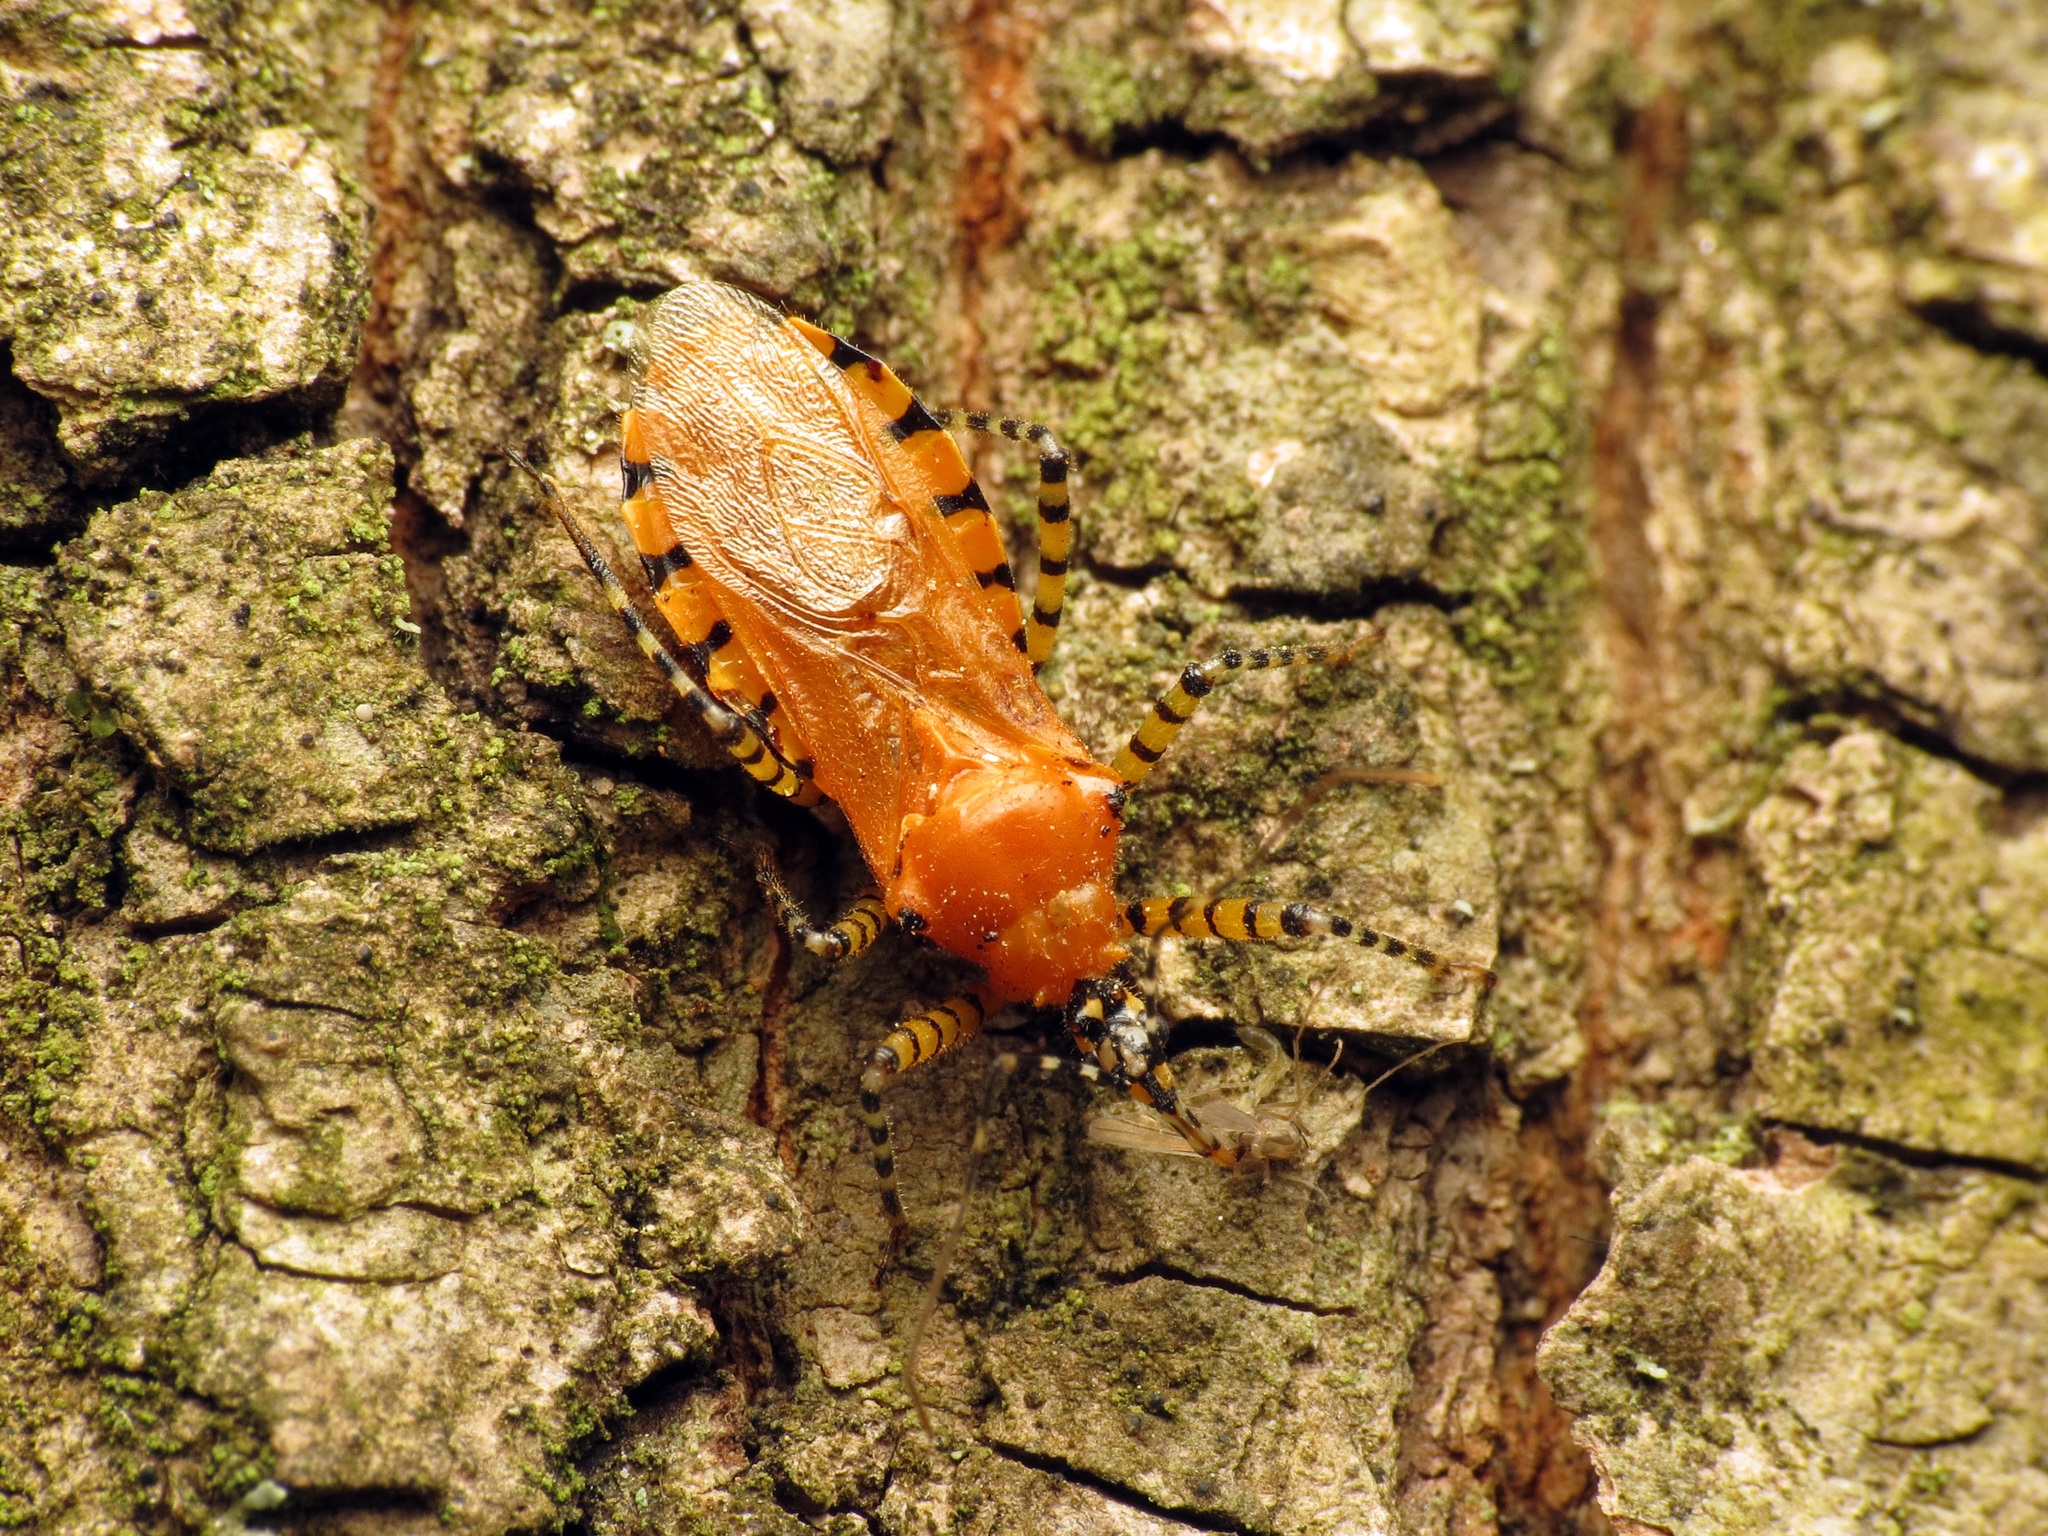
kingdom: Animalia
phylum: Arthropoda
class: Insecta
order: Hemiptera
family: Reduviidae
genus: Pselliopus
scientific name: Pselliopus barberi
